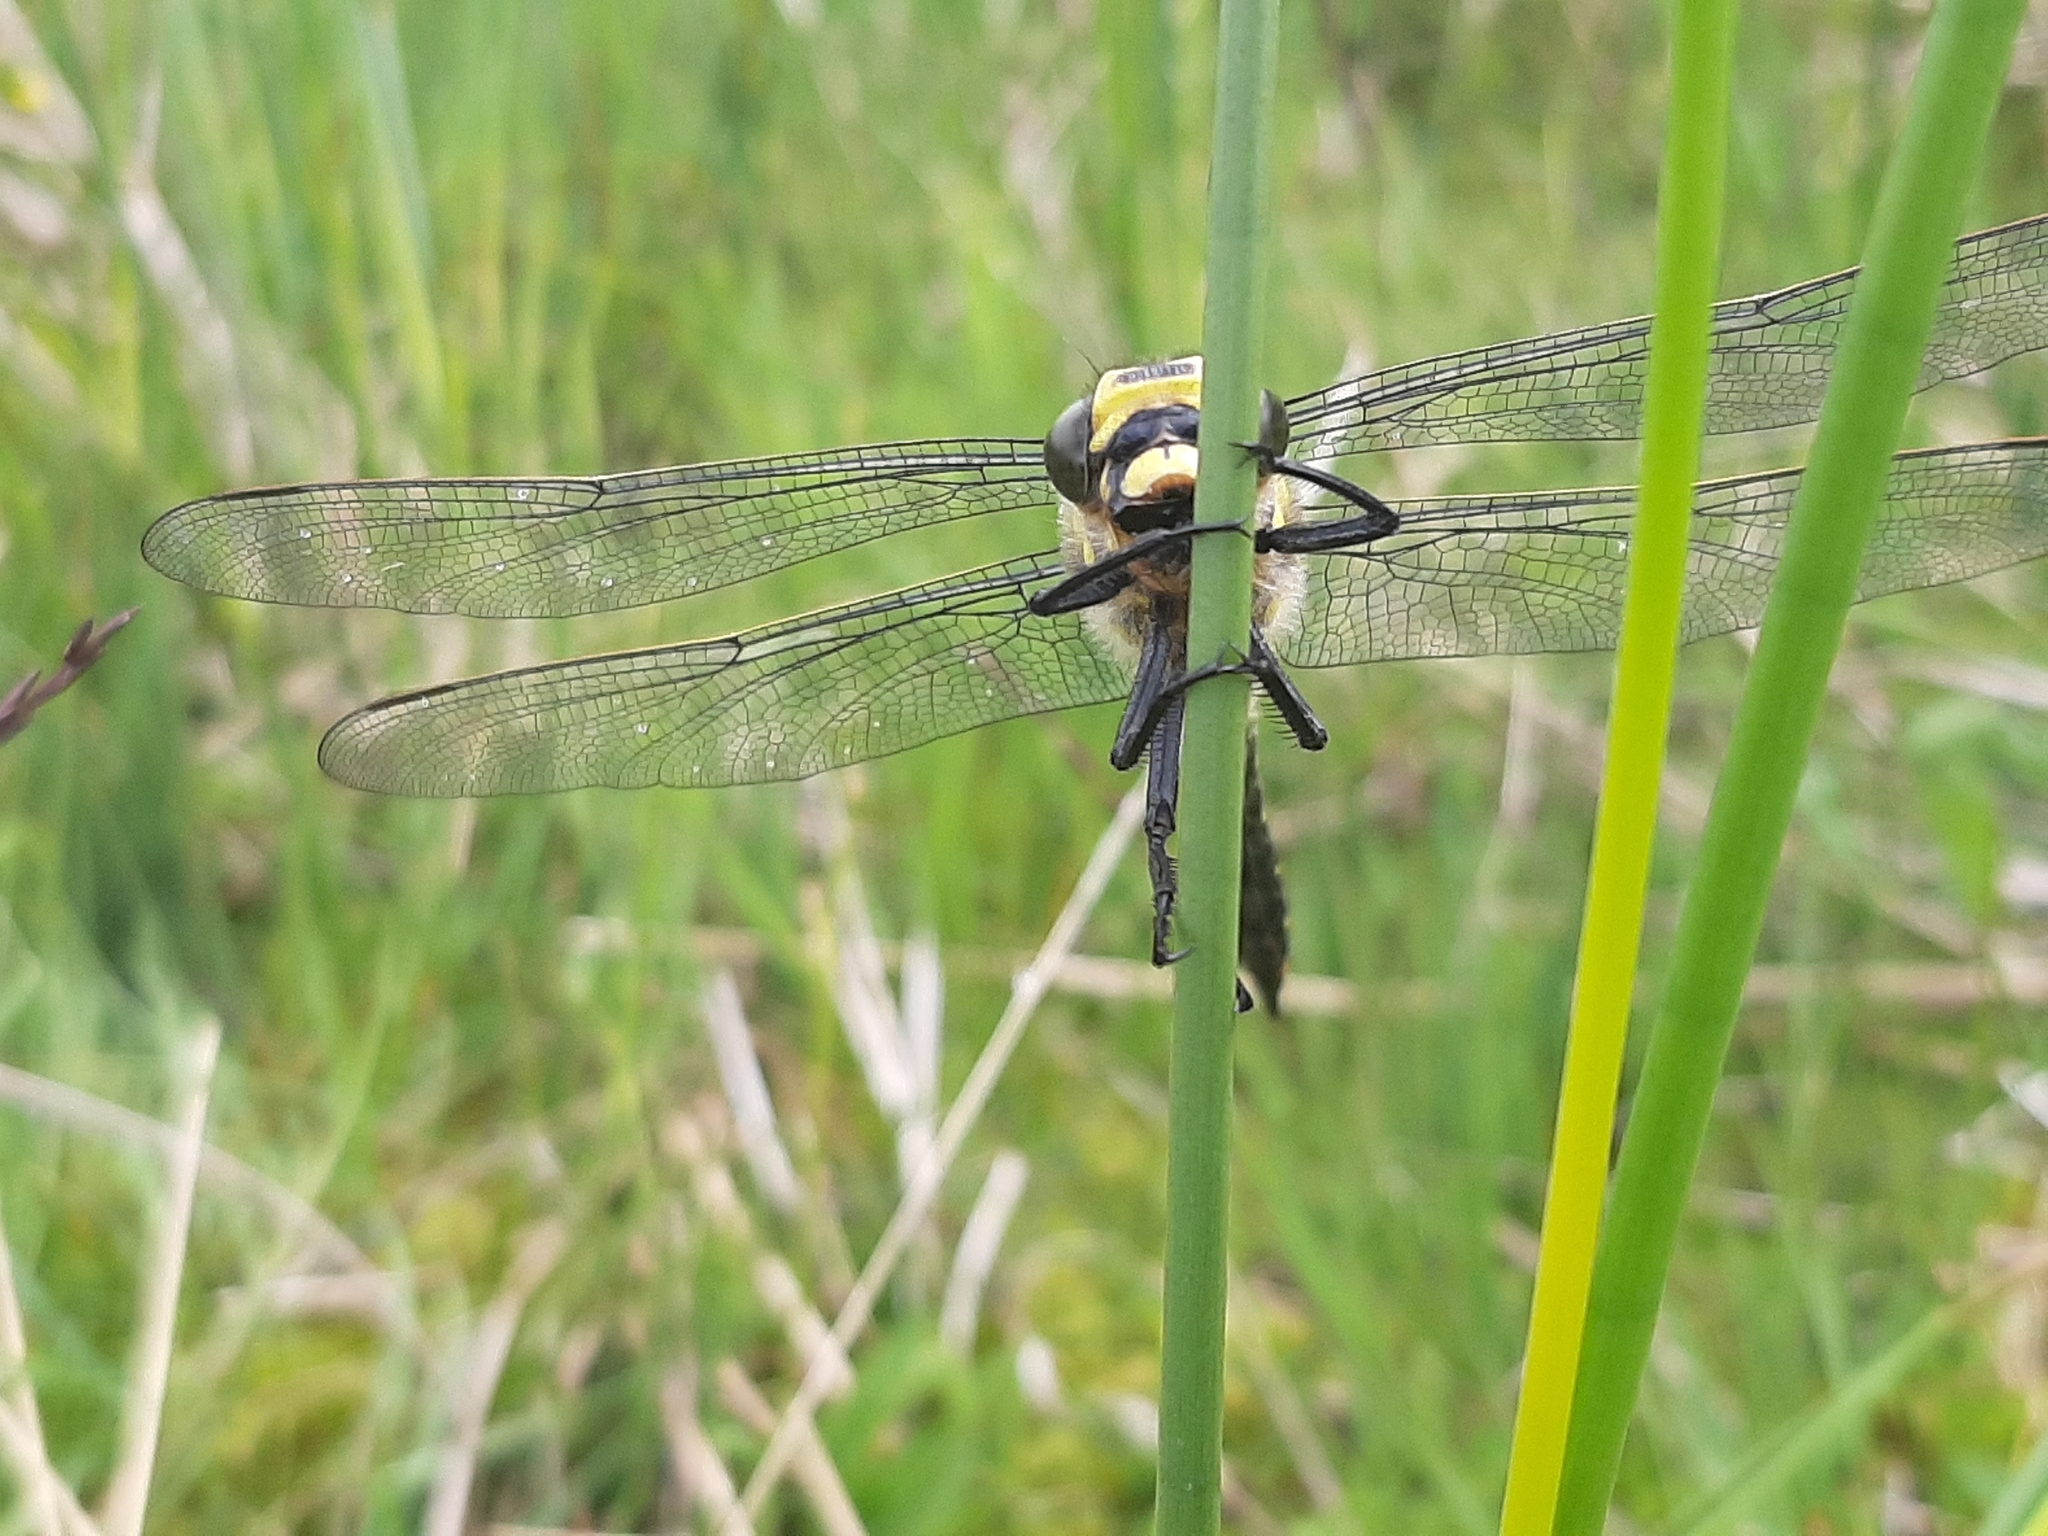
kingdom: Animalia
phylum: Arthropoda
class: Insecta
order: Odonata
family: Cordulegastridae
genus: Cordulegaster
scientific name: Cordulegaster boltonii
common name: Golden-ringed dragonfly
